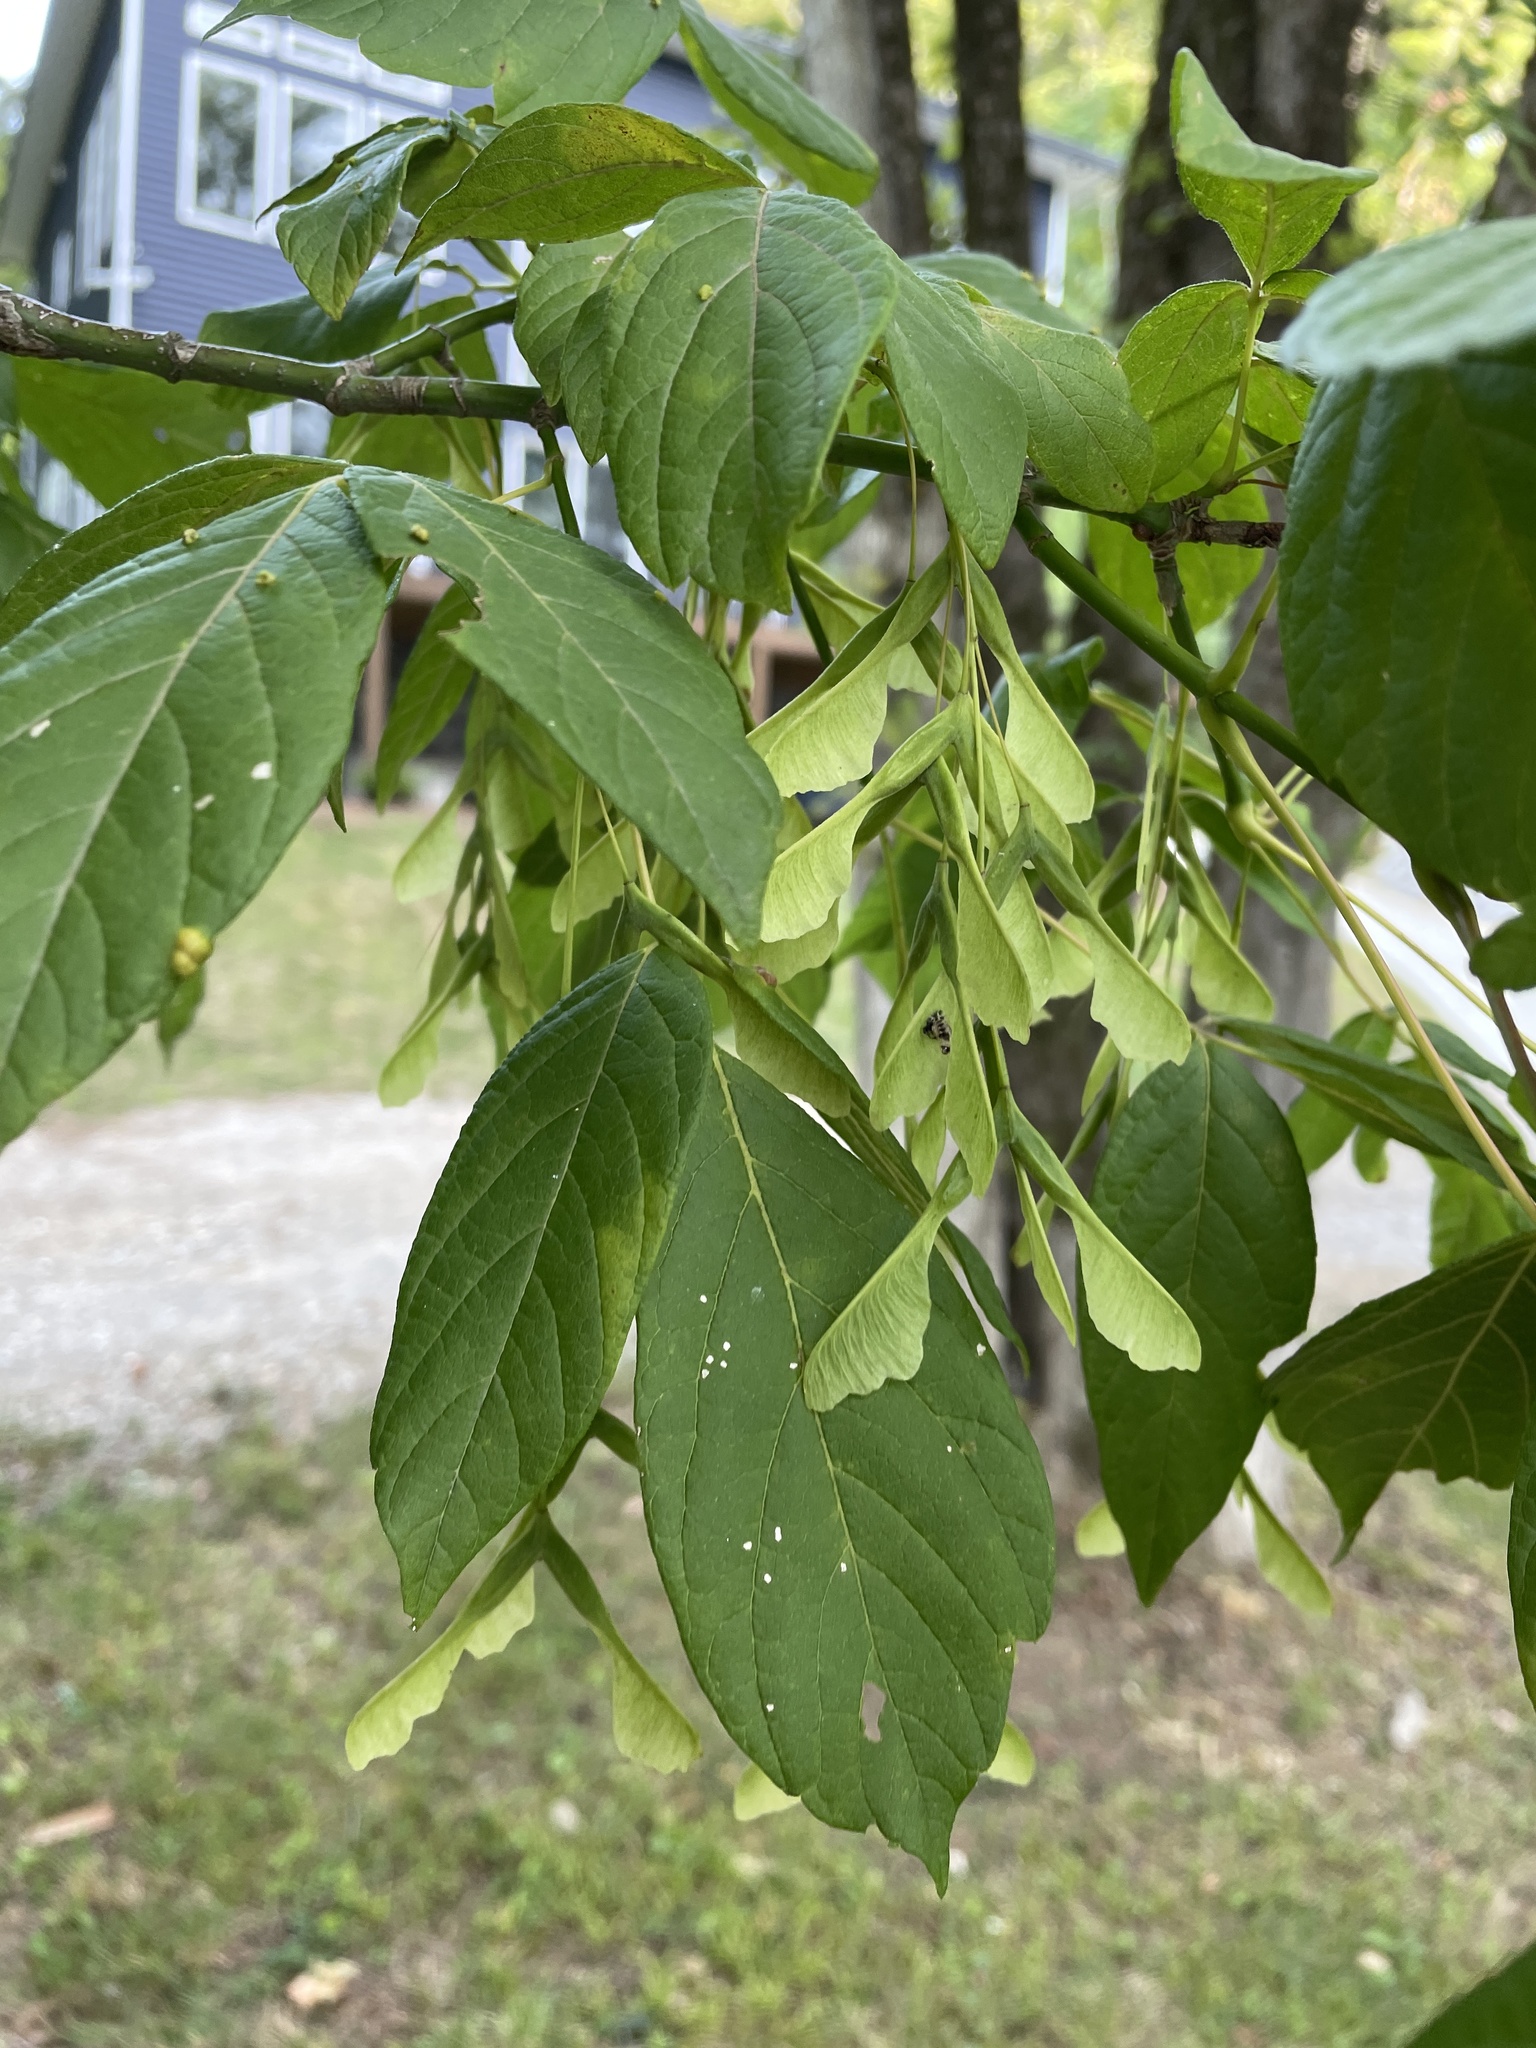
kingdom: Plantae
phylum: Tracheophyta
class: Magnoliopsida
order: Sapindales
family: Sapindaceae
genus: Acer
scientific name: Acer negundo
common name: Ashleaf maple
